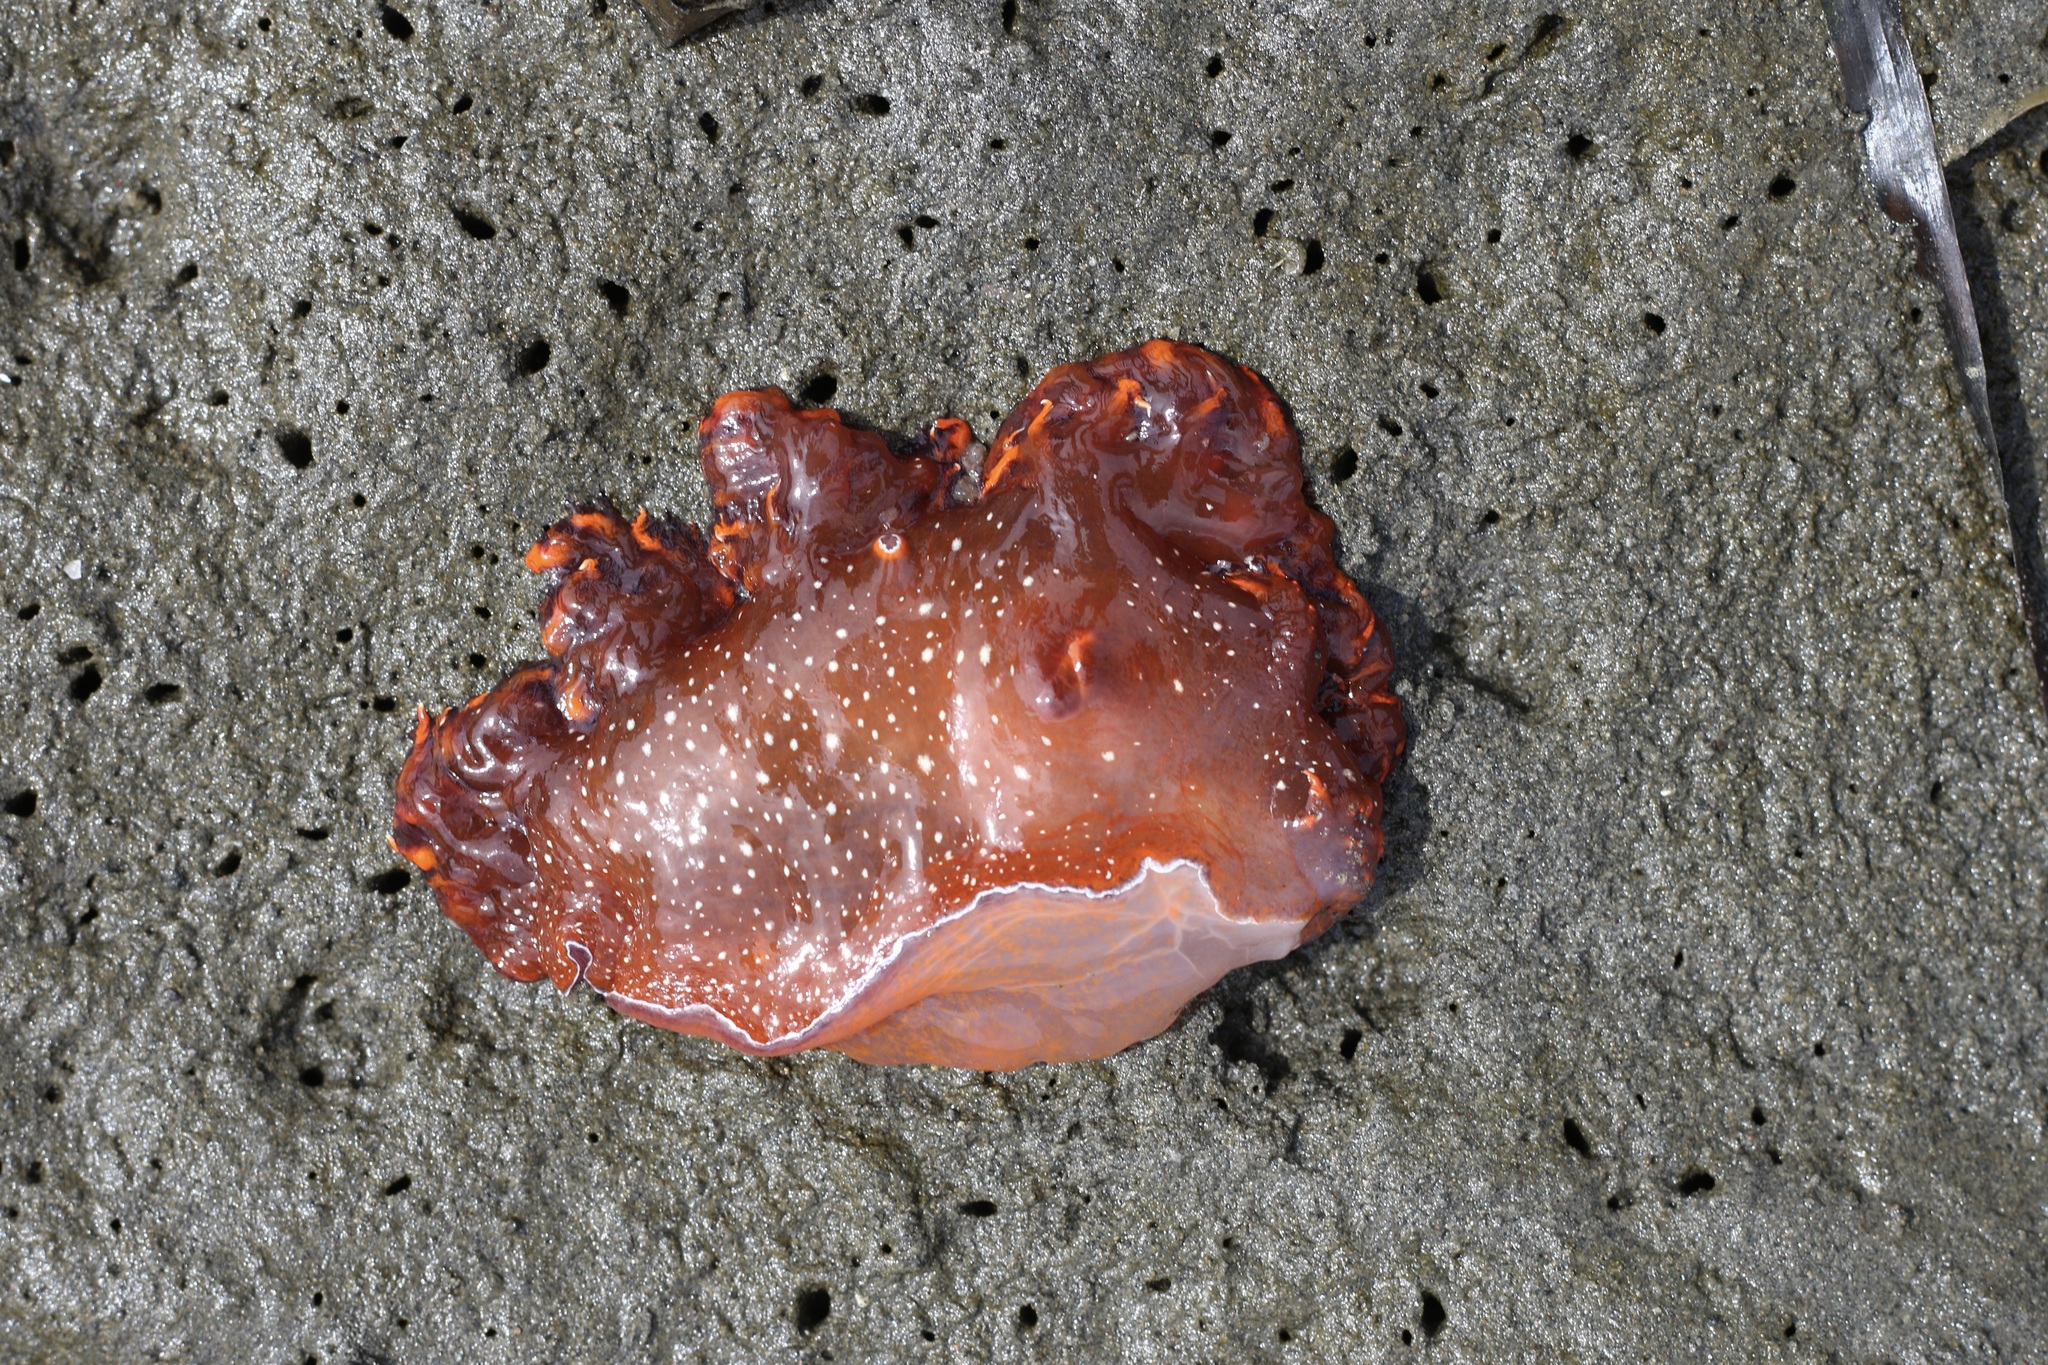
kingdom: Animalia
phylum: Mollusca
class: Gastropoda
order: Nudibranchia
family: Dendronotidae
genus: Dendronotus
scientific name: Dendronotus iris
